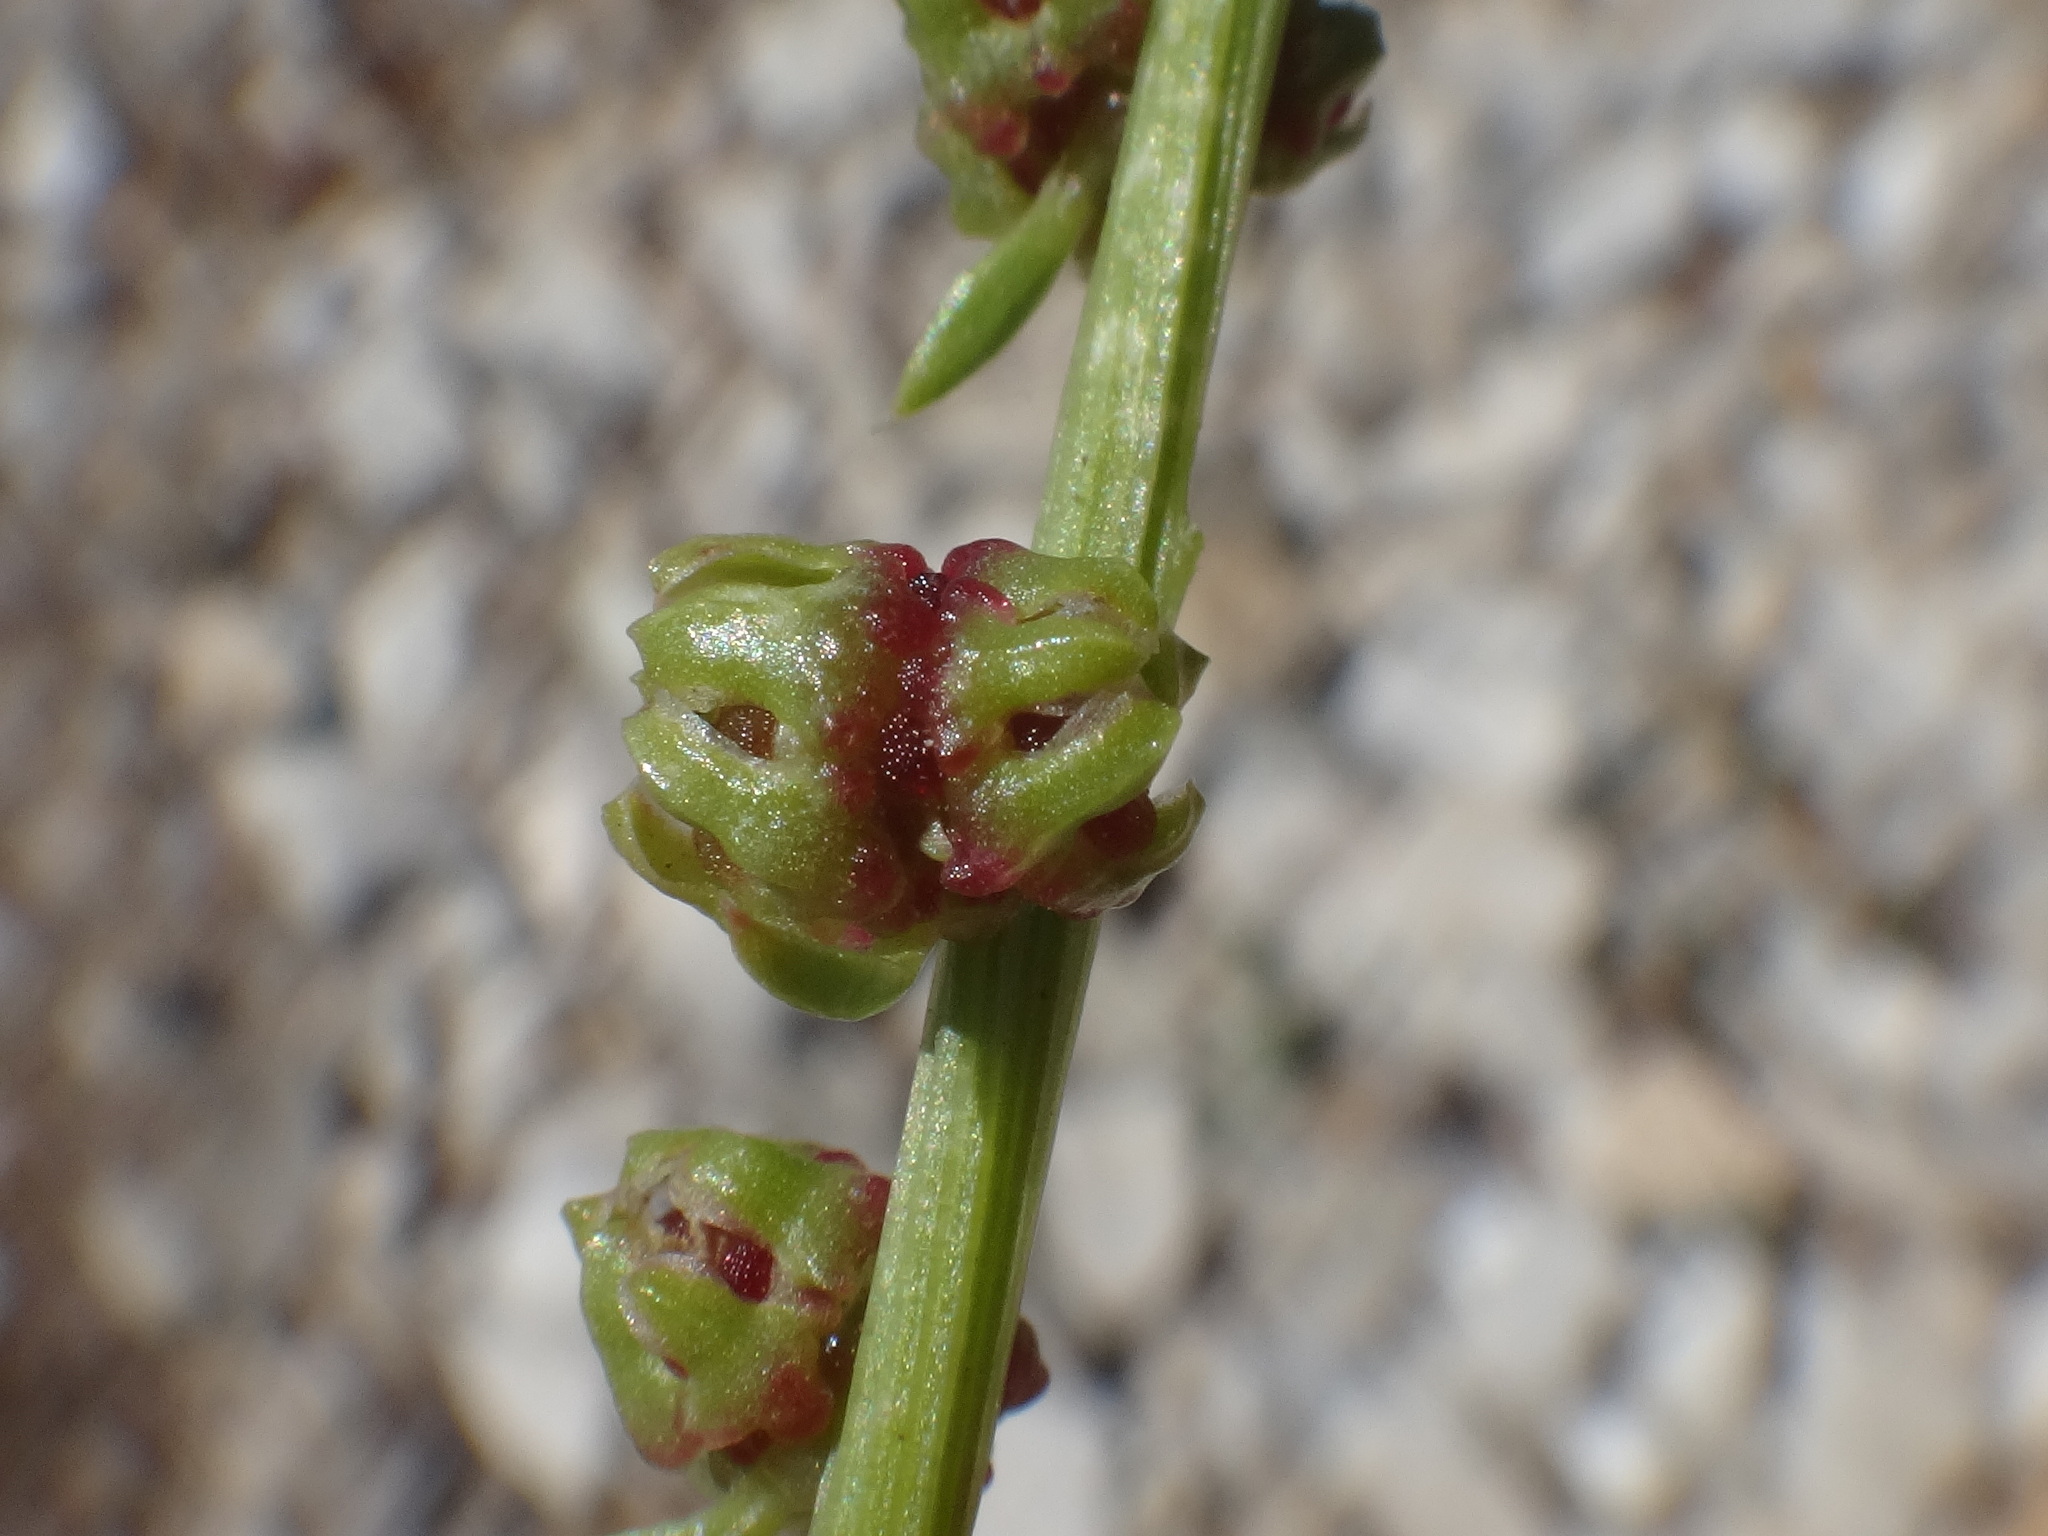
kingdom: Plantae
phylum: Tracheophyta
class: Magnoliopsida
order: Caryophyllales
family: Amaranthaceae
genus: Beta
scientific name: Beta vulgaris
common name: Beet
